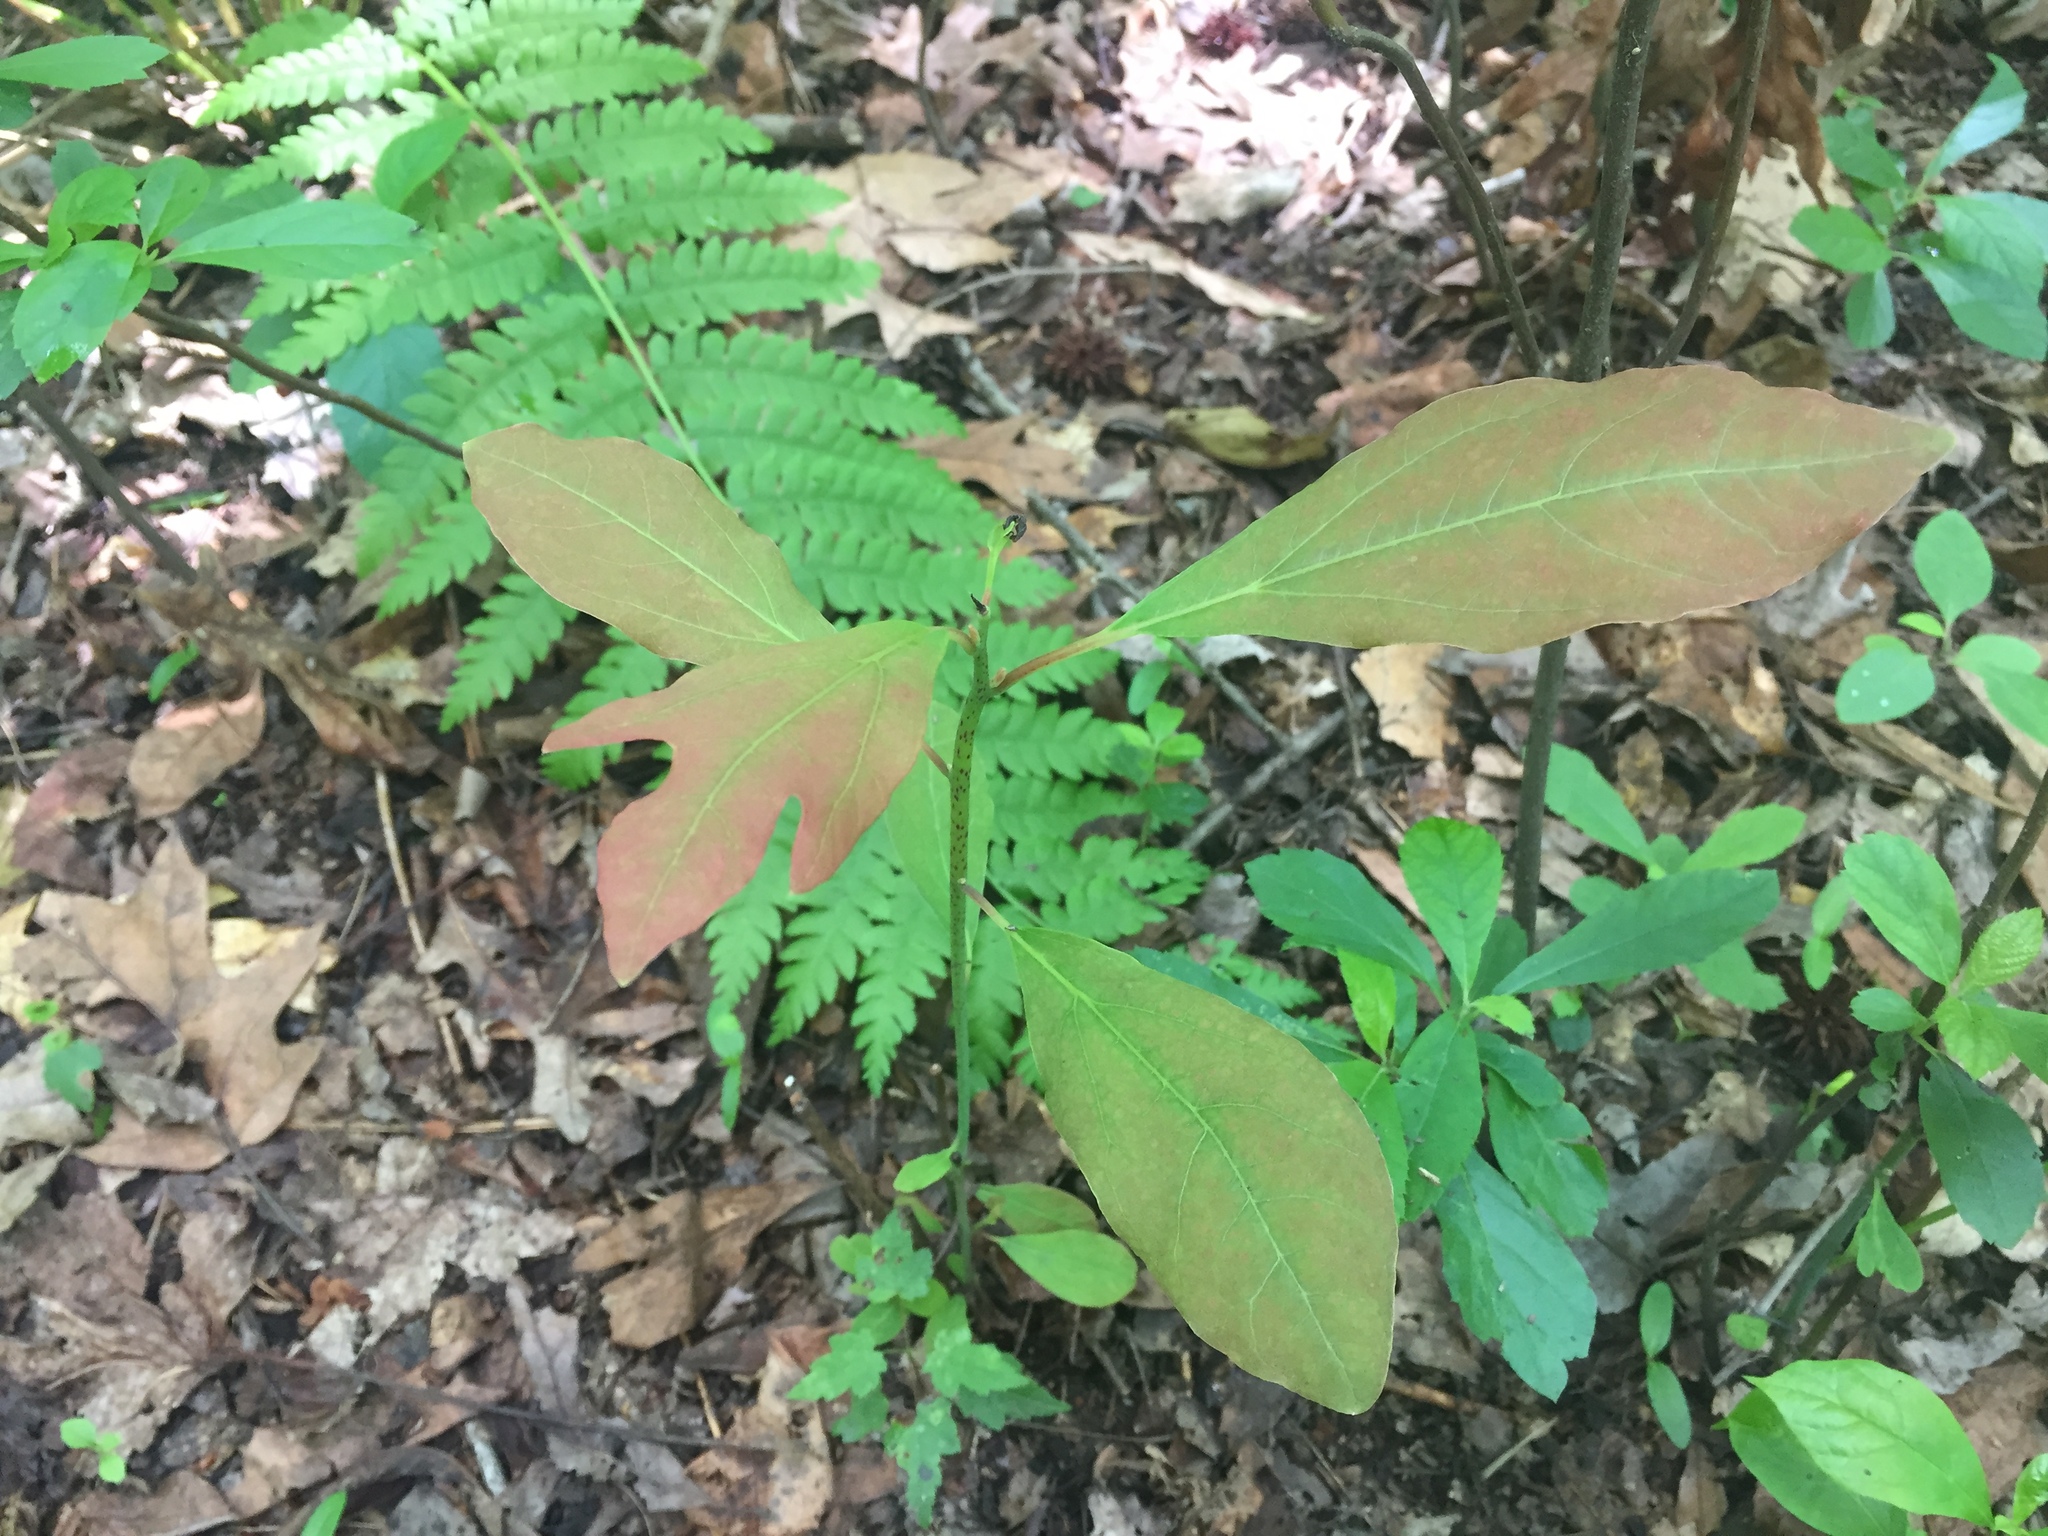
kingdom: Plantae
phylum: Tracheophyta
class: Magnoliopsida
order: Laurales
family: Lauraceae
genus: Sassafras
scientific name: Sassafras albidum
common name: Sassafras
